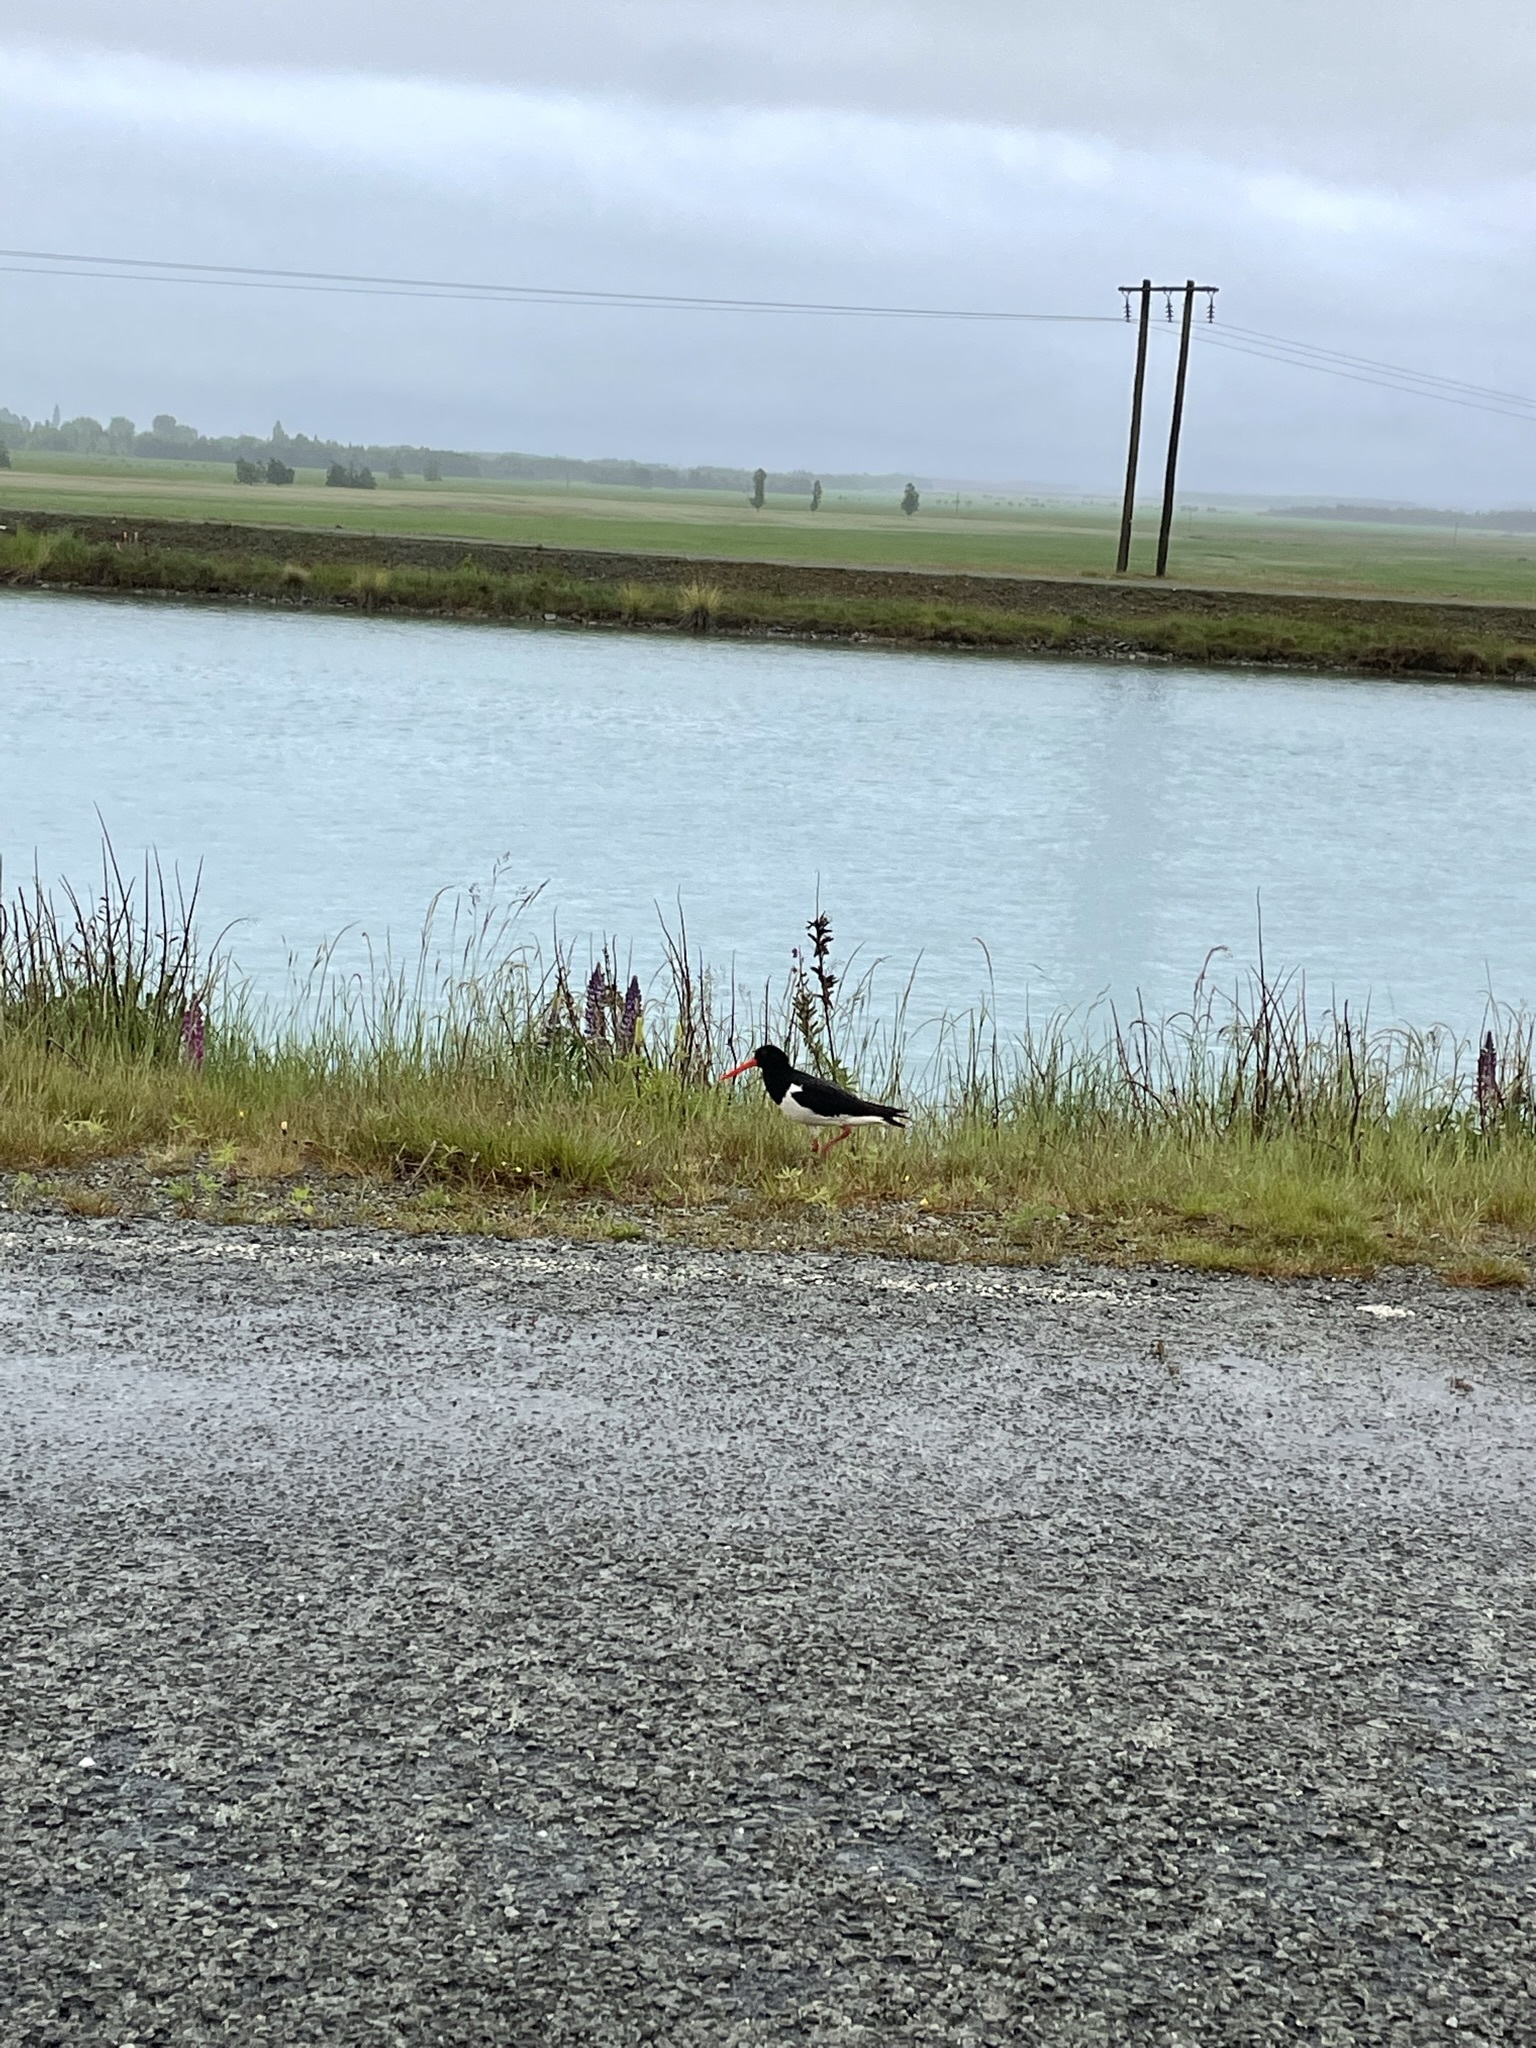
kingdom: Animalia
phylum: Chordata
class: Aves
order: Charadriiformes
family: Haematopodidae
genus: Haematopus
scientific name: Haematopus finschi
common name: South island oystercatcher
